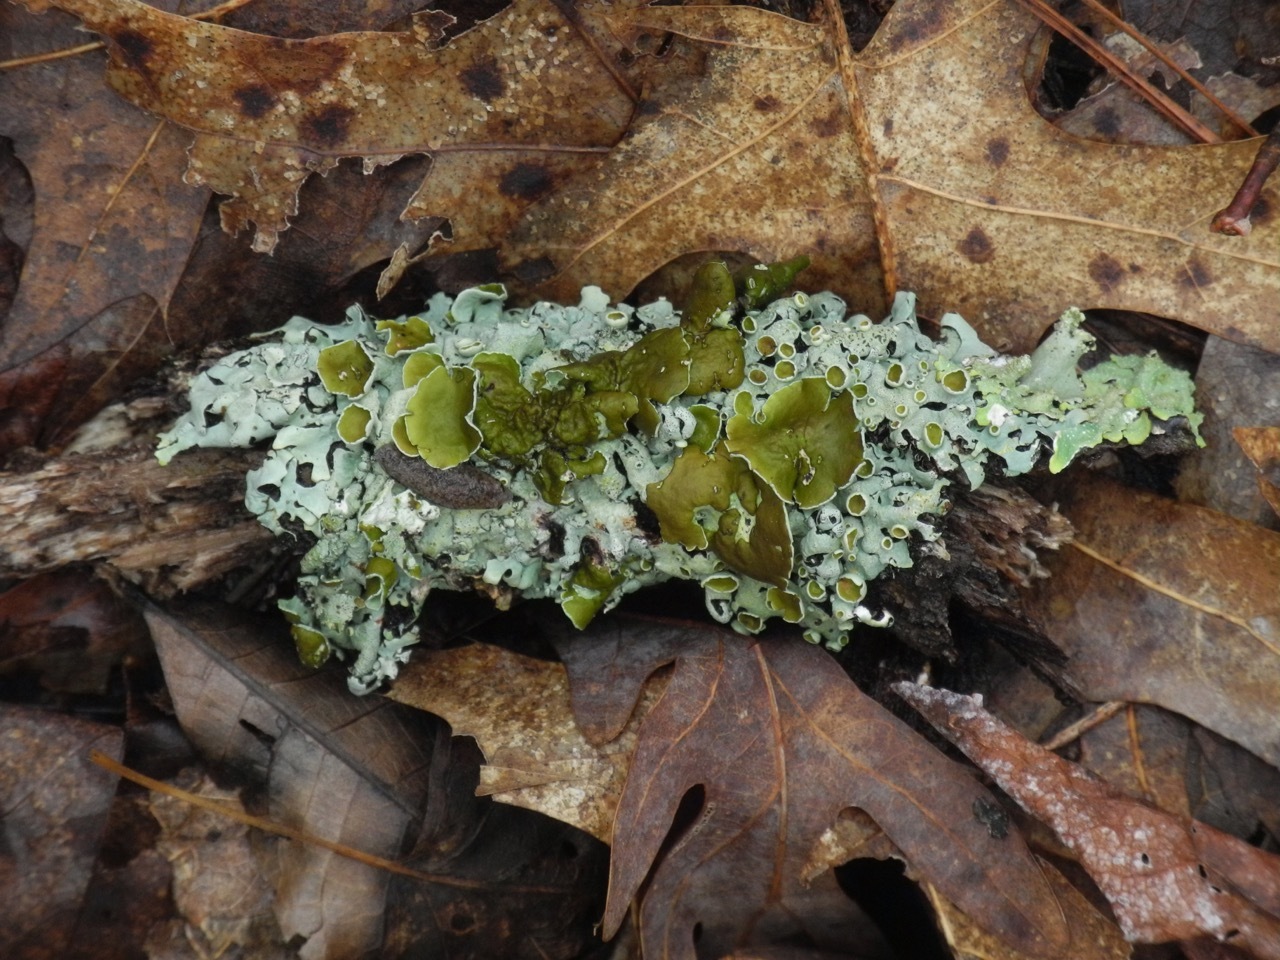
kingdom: Fungi
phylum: Ascomycota
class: Lecanoromycetes
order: Lecanorales
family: Parmeliaceae
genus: Parmotrema
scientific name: Parmotrema submarginale
